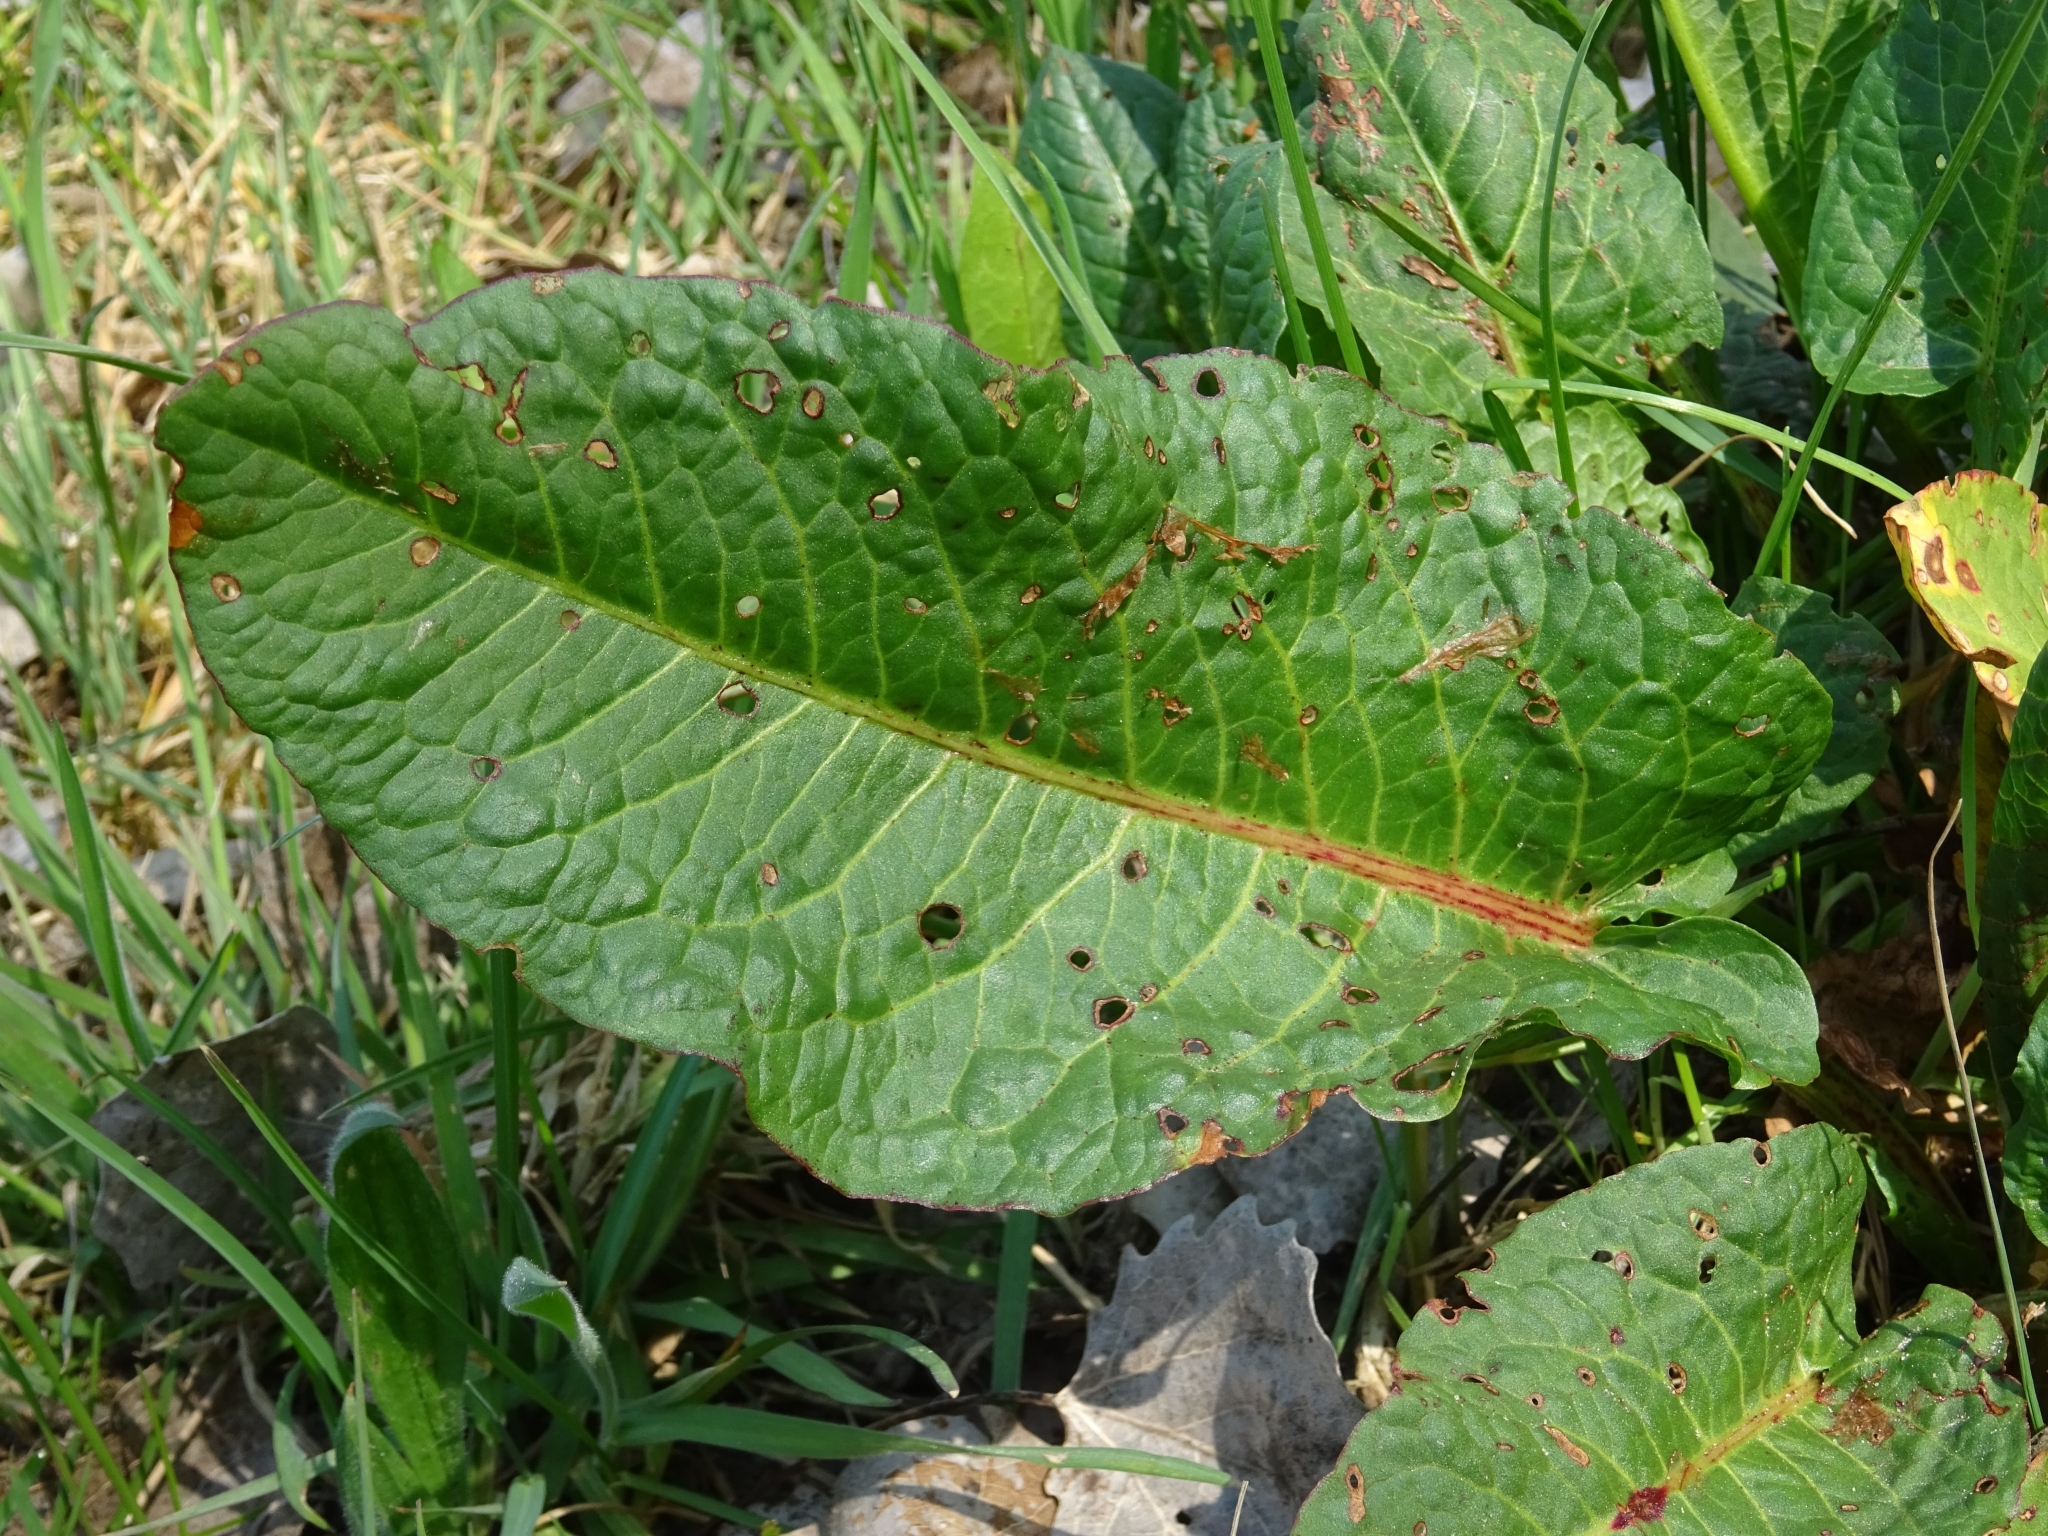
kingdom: Plantae
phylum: Tracheophyta
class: Magnoliopsida
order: Caryophyllales
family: Polygonaceae
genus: Rumex
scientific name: Rumex obtusifolius
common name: Bitter dock
